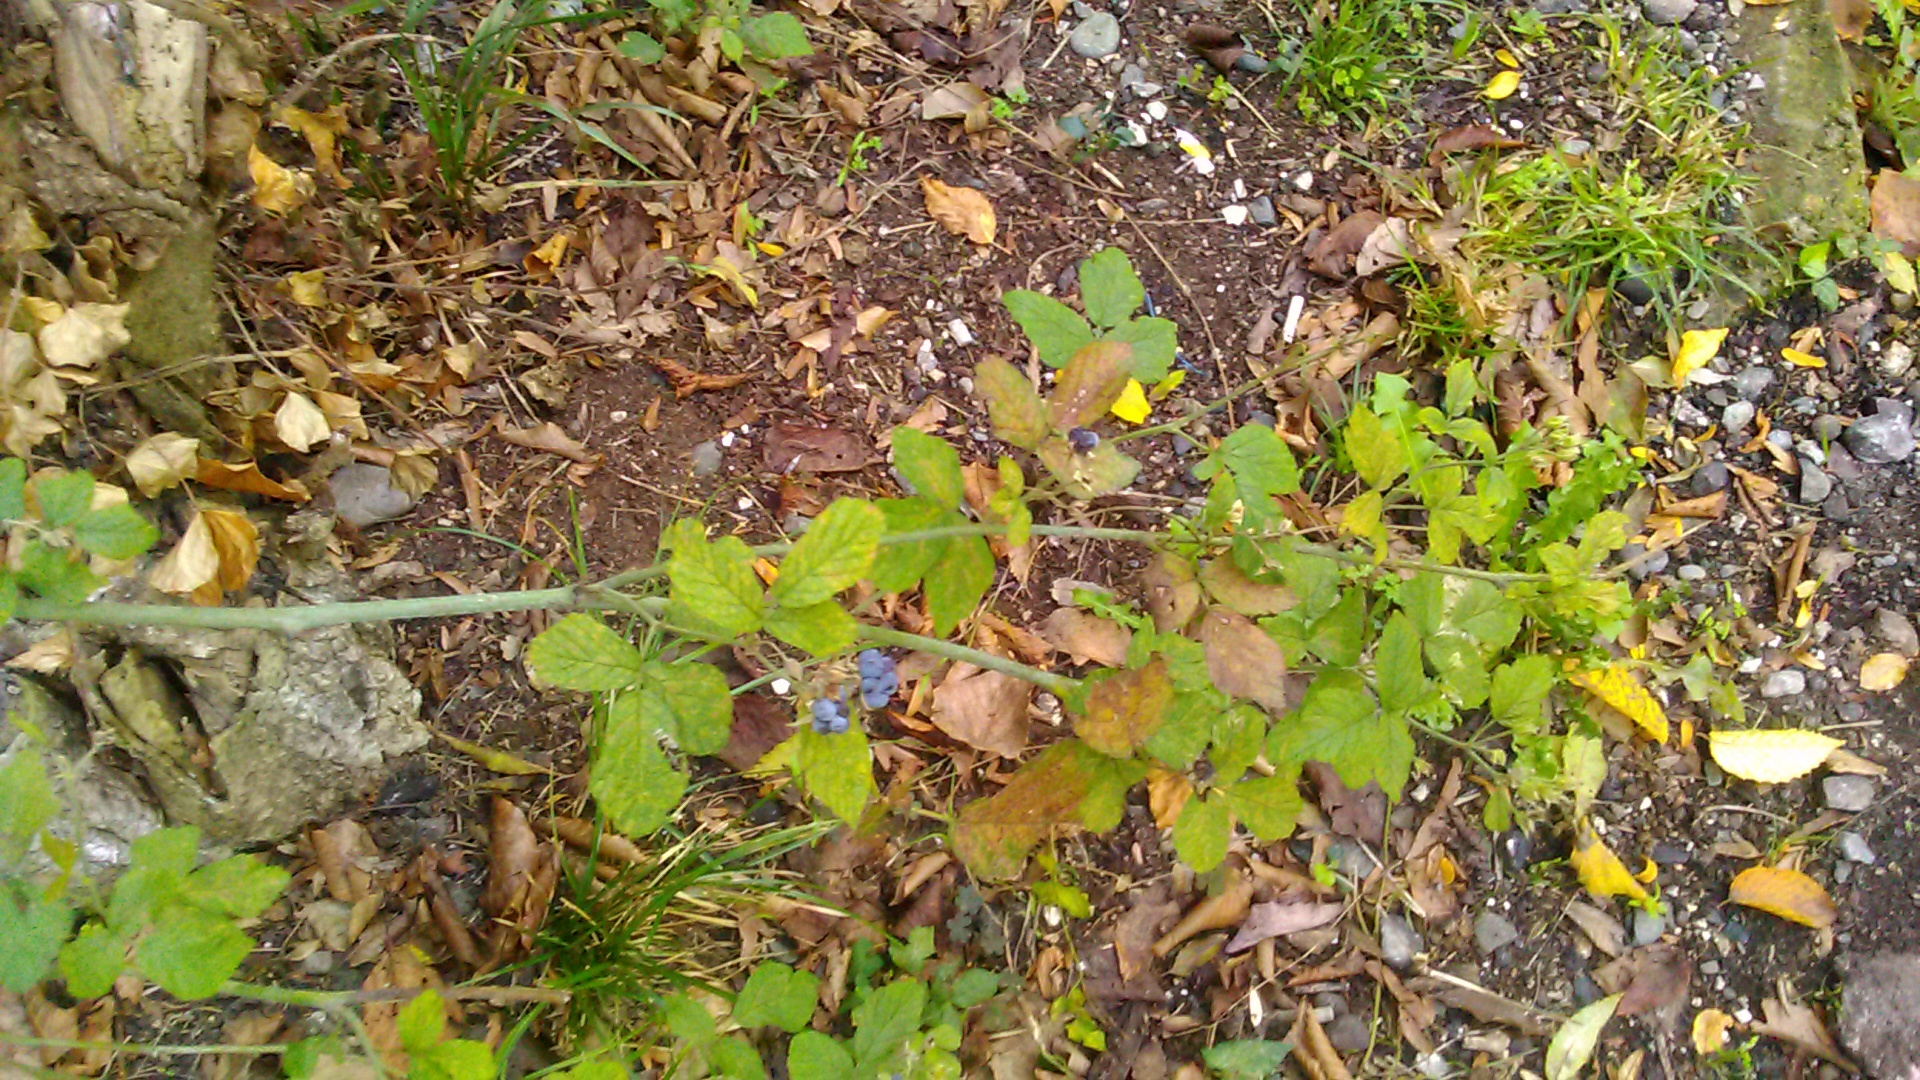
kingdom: Plantae
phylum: Tracheophyta
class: Magnoliopsida
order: Rosales
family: Rosaceae
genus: Rubus
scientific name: Rubus caesius
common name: Dewberry
